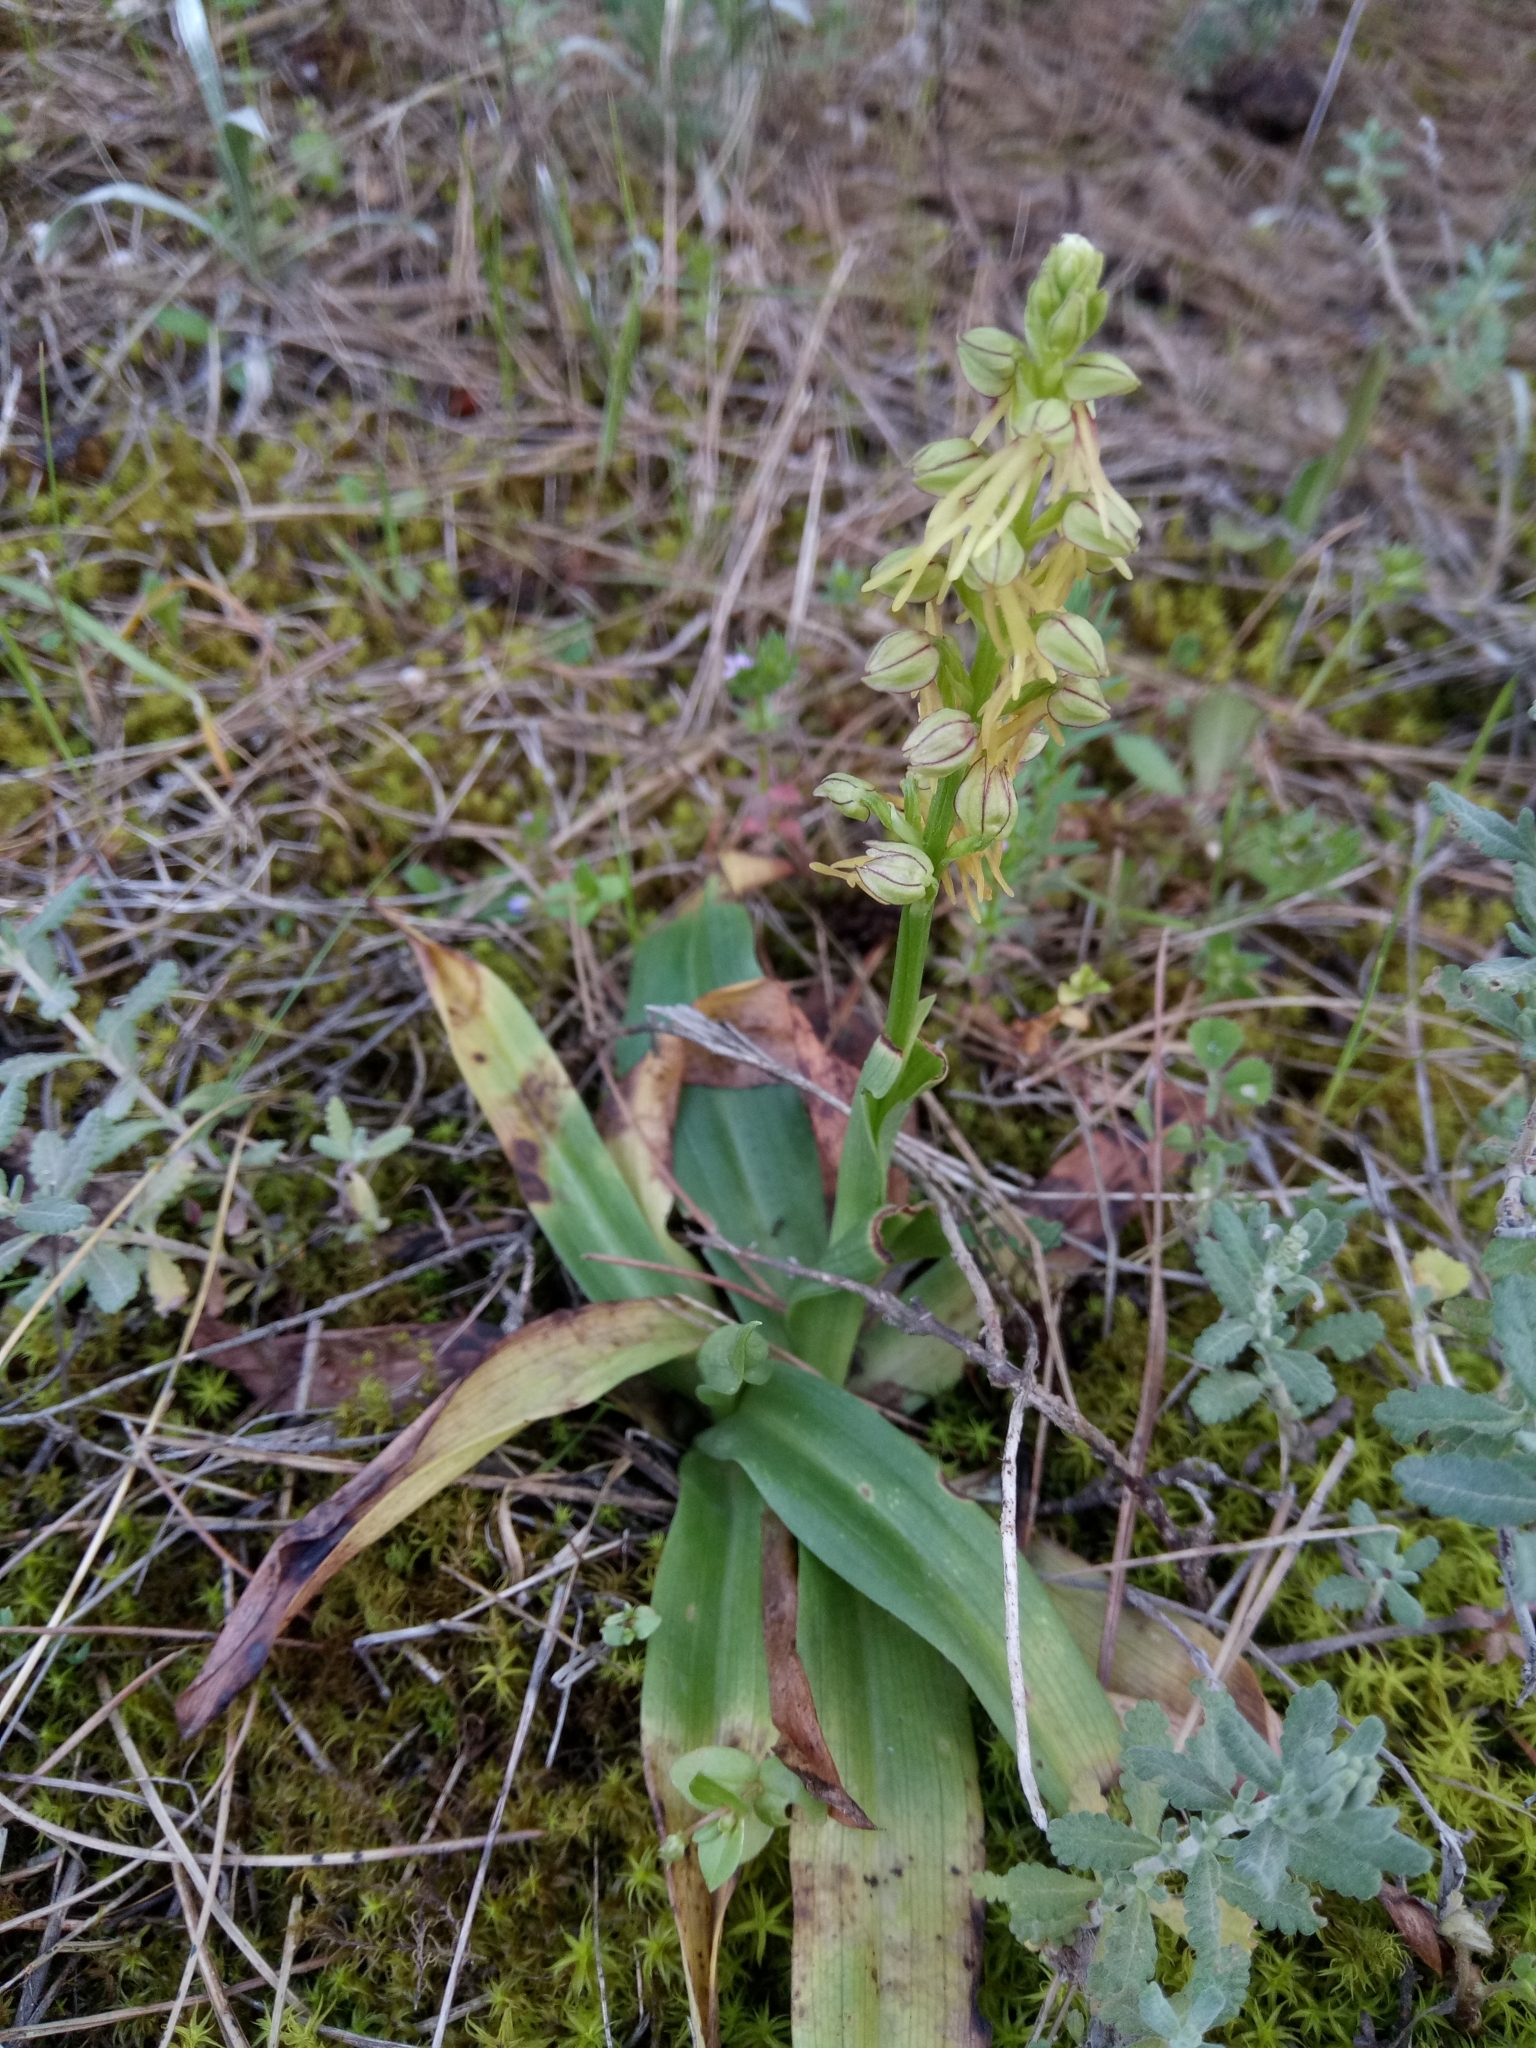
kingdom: Plantae
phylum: Tracheophyta
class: Liliopsida
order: Asparagales
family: Orchidaceae
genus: Orchis
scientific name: Orchis anthropophora
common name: Man orchid
